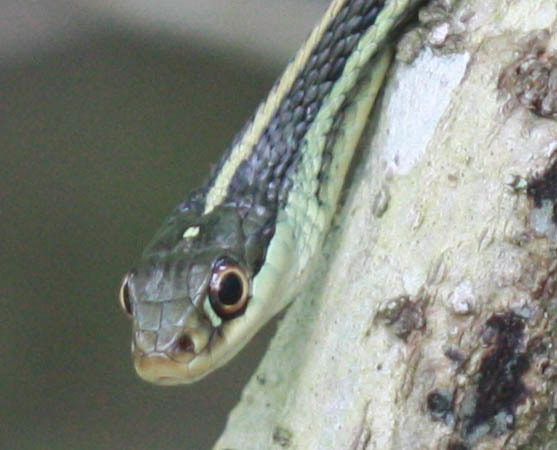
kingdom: Animalia
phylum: Chordata
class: Squamata
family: Colubridae
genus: Thamnophis
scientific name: Thamnophis proximus
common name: Western ribbon snake
